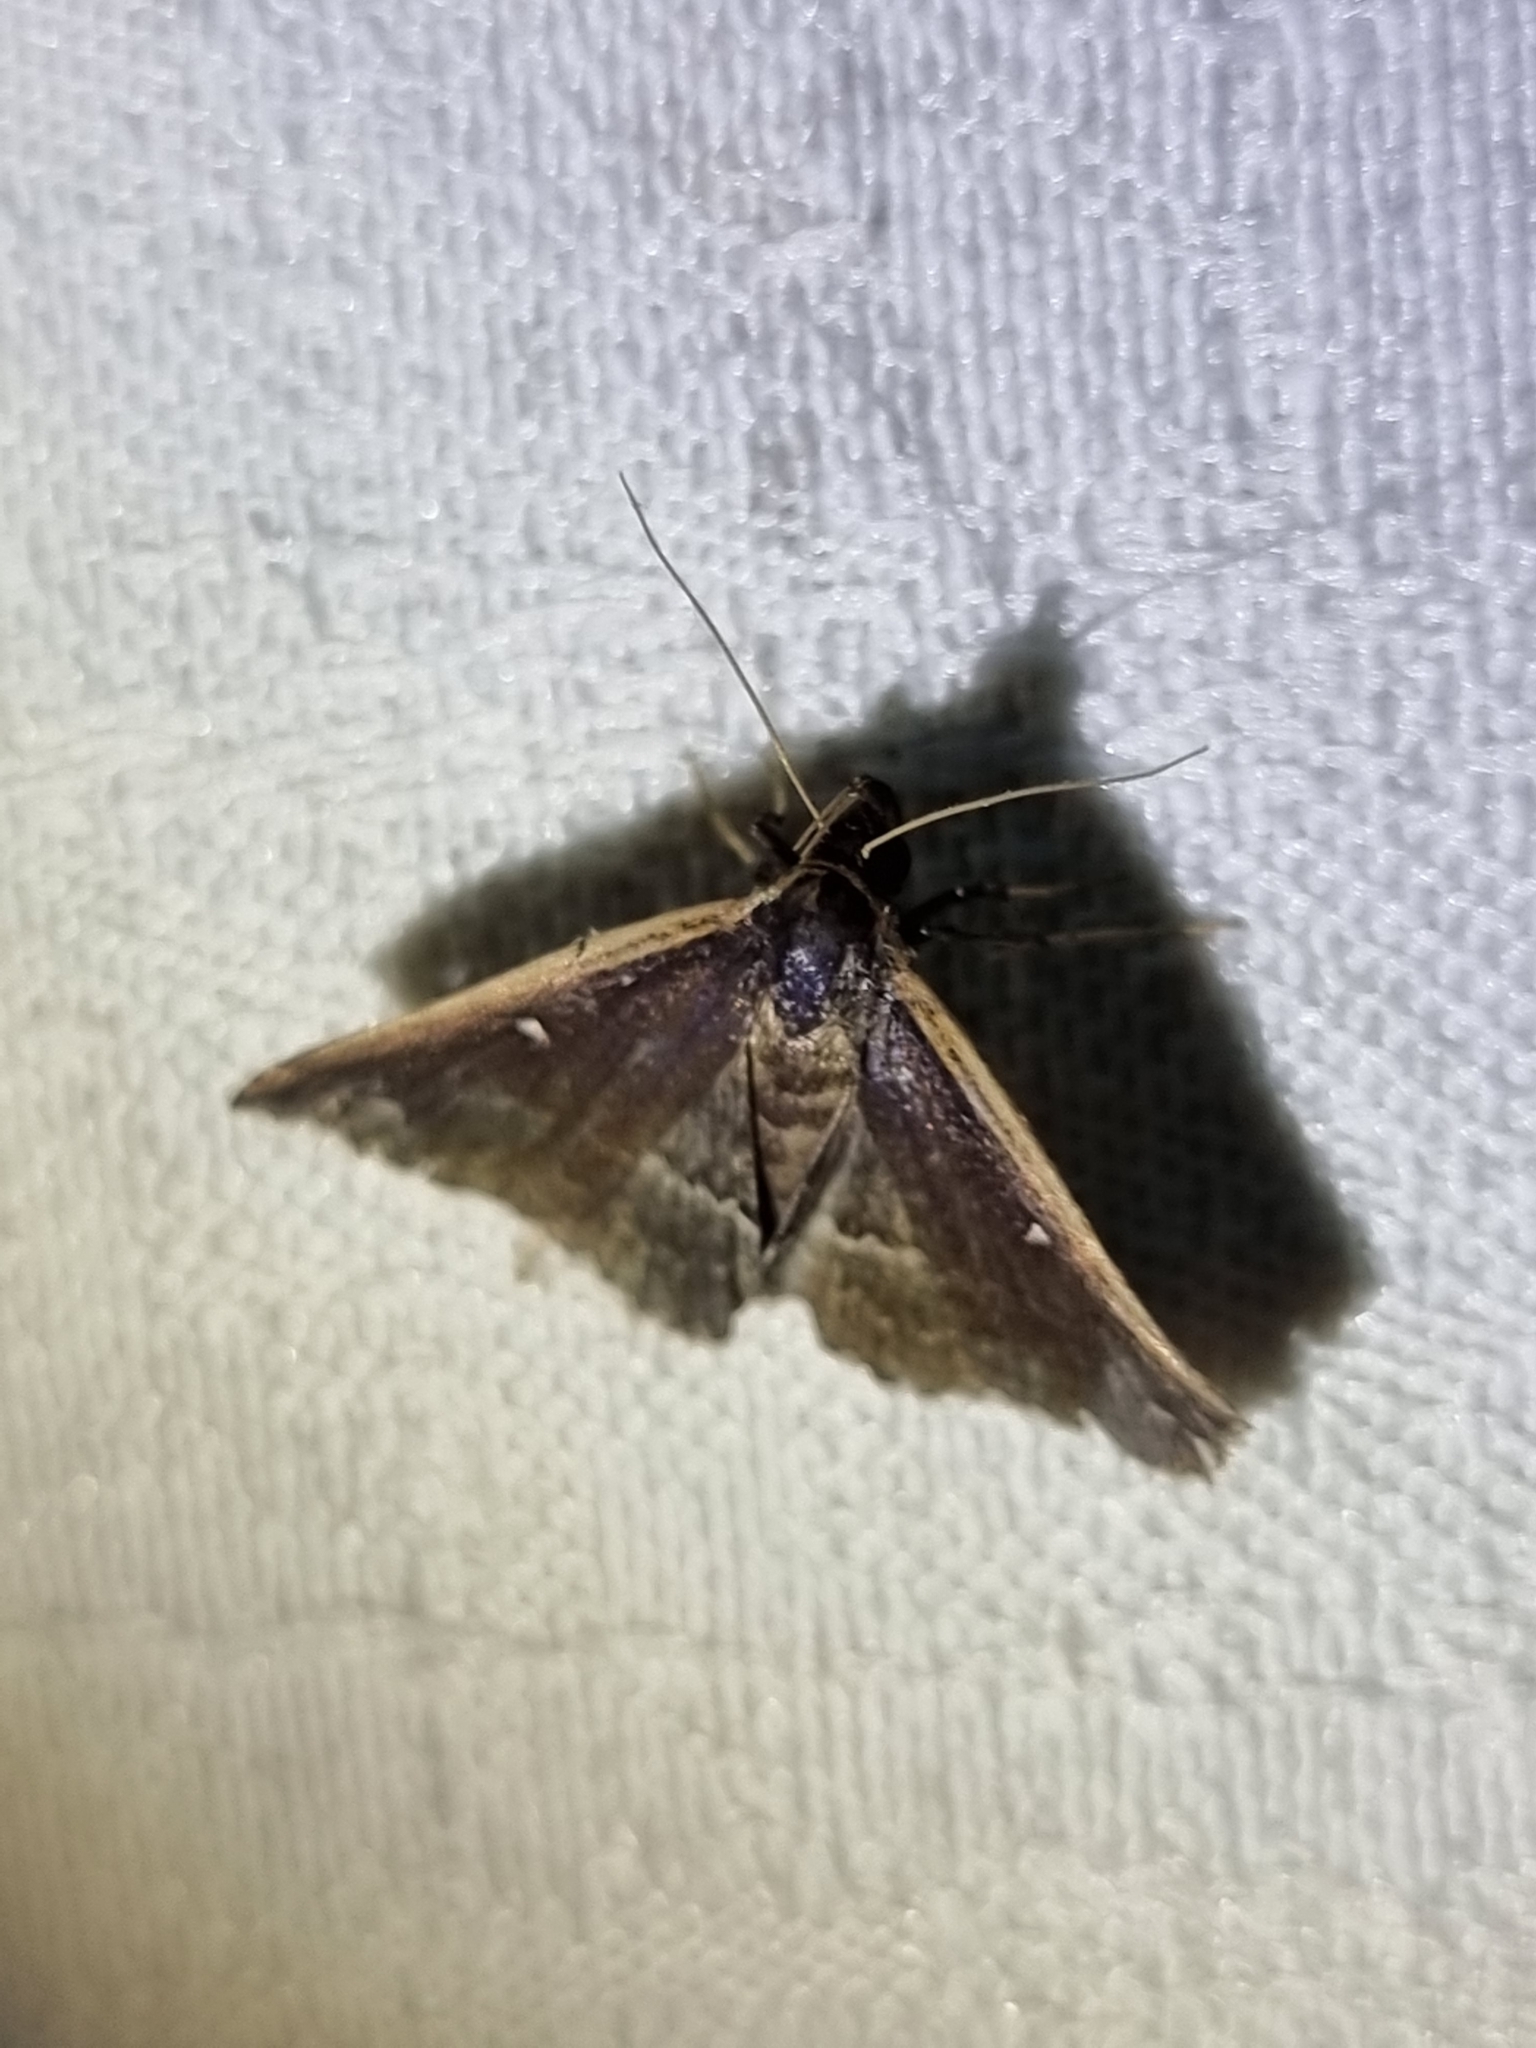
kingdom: Animalia
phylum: Arthropoda
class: Insecta
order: Lepidoptera
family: Erebidae
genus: Adrapsa
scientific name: Adrapsa ablualis
